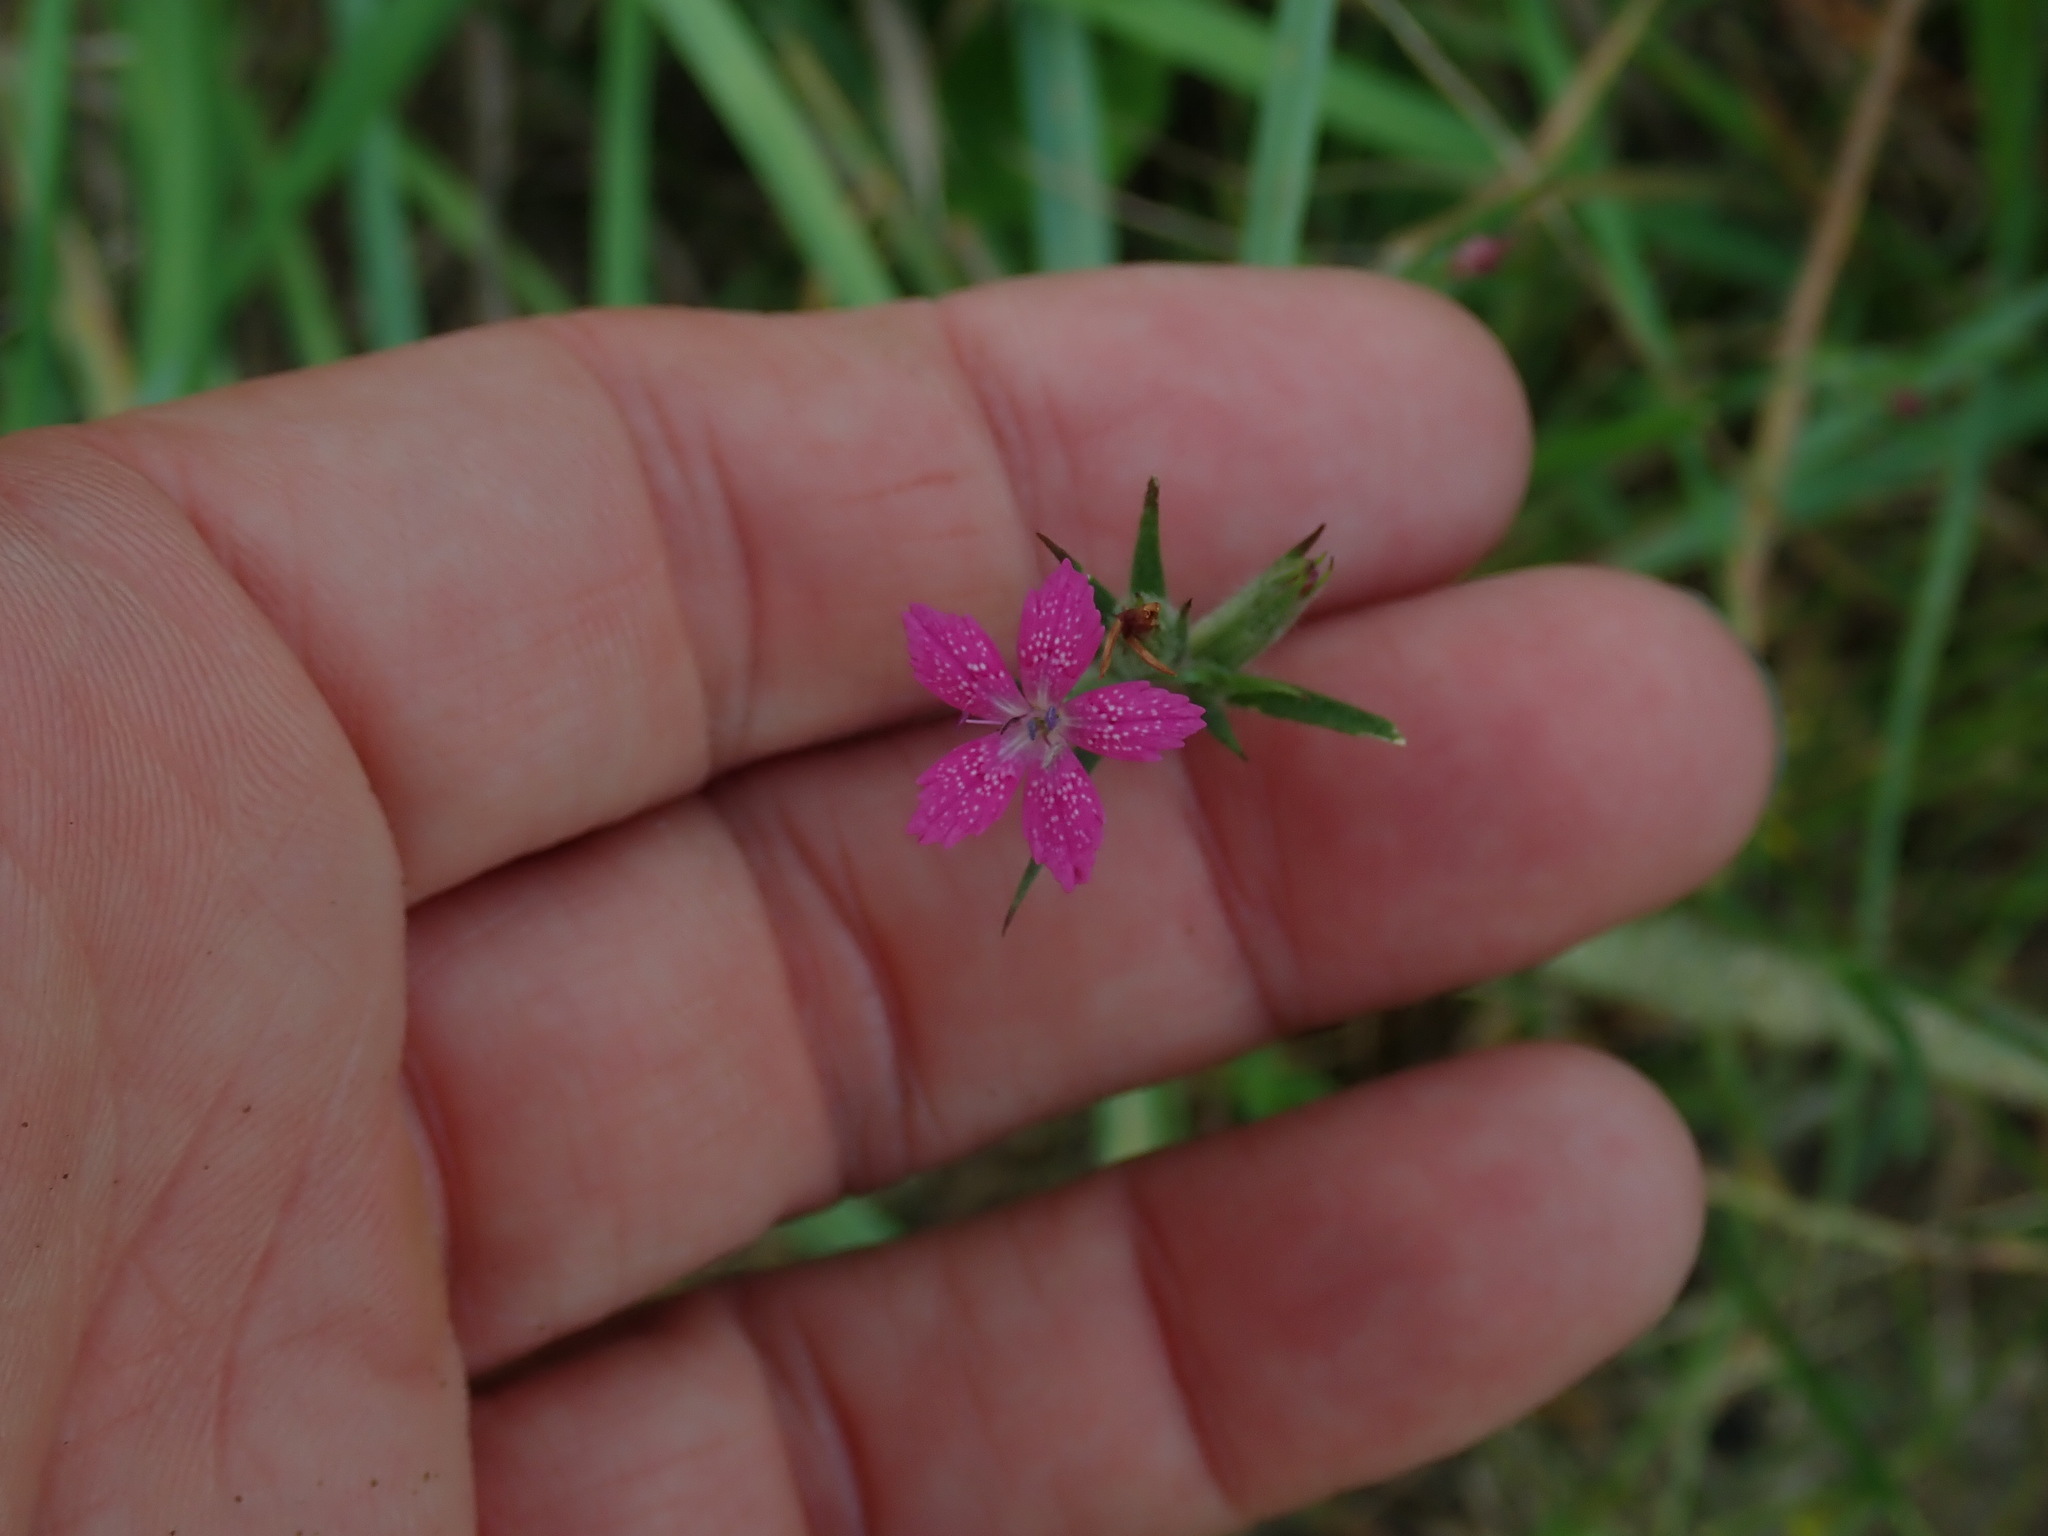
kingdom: Plantae
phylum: Tracheophyta
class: Magnoliopsida
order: Caryophyllales
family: Caryophyllaceae
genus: Dianthus
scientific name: Dianthus armeria
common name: Deptford pink
